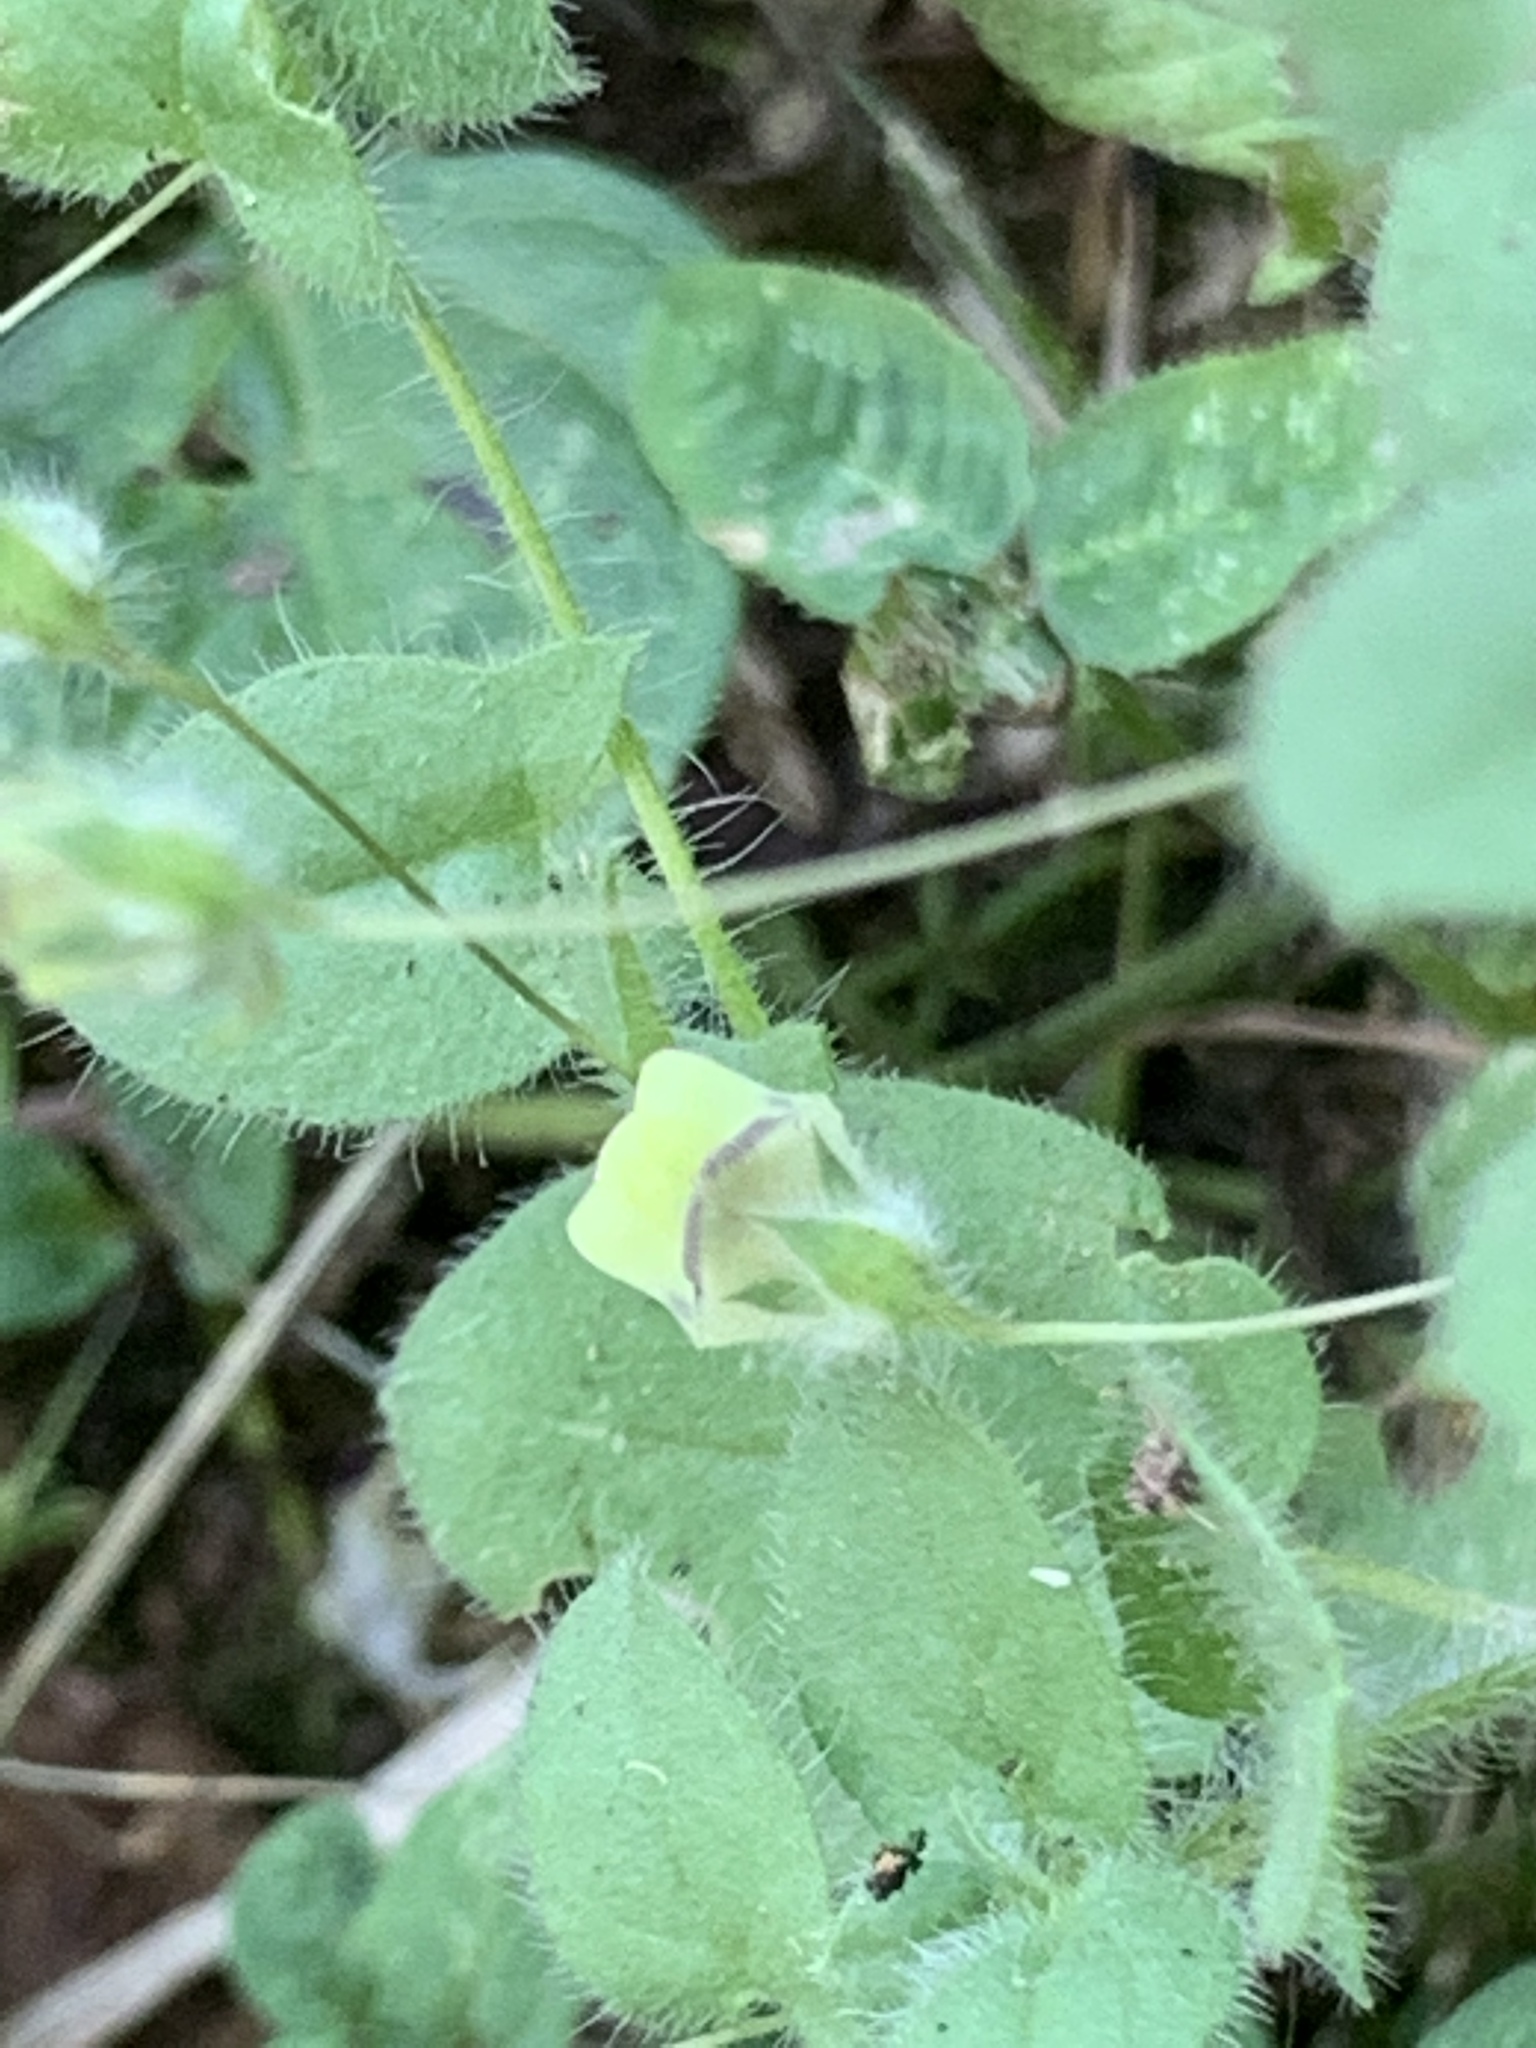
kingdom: Plantae
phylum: Tracheophyta
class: Magnoliopsida
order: Lamiales
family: Plantaginaceae
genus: Kickxia
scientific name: Kickxia elatine
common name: Sharp-leaved fluellen
